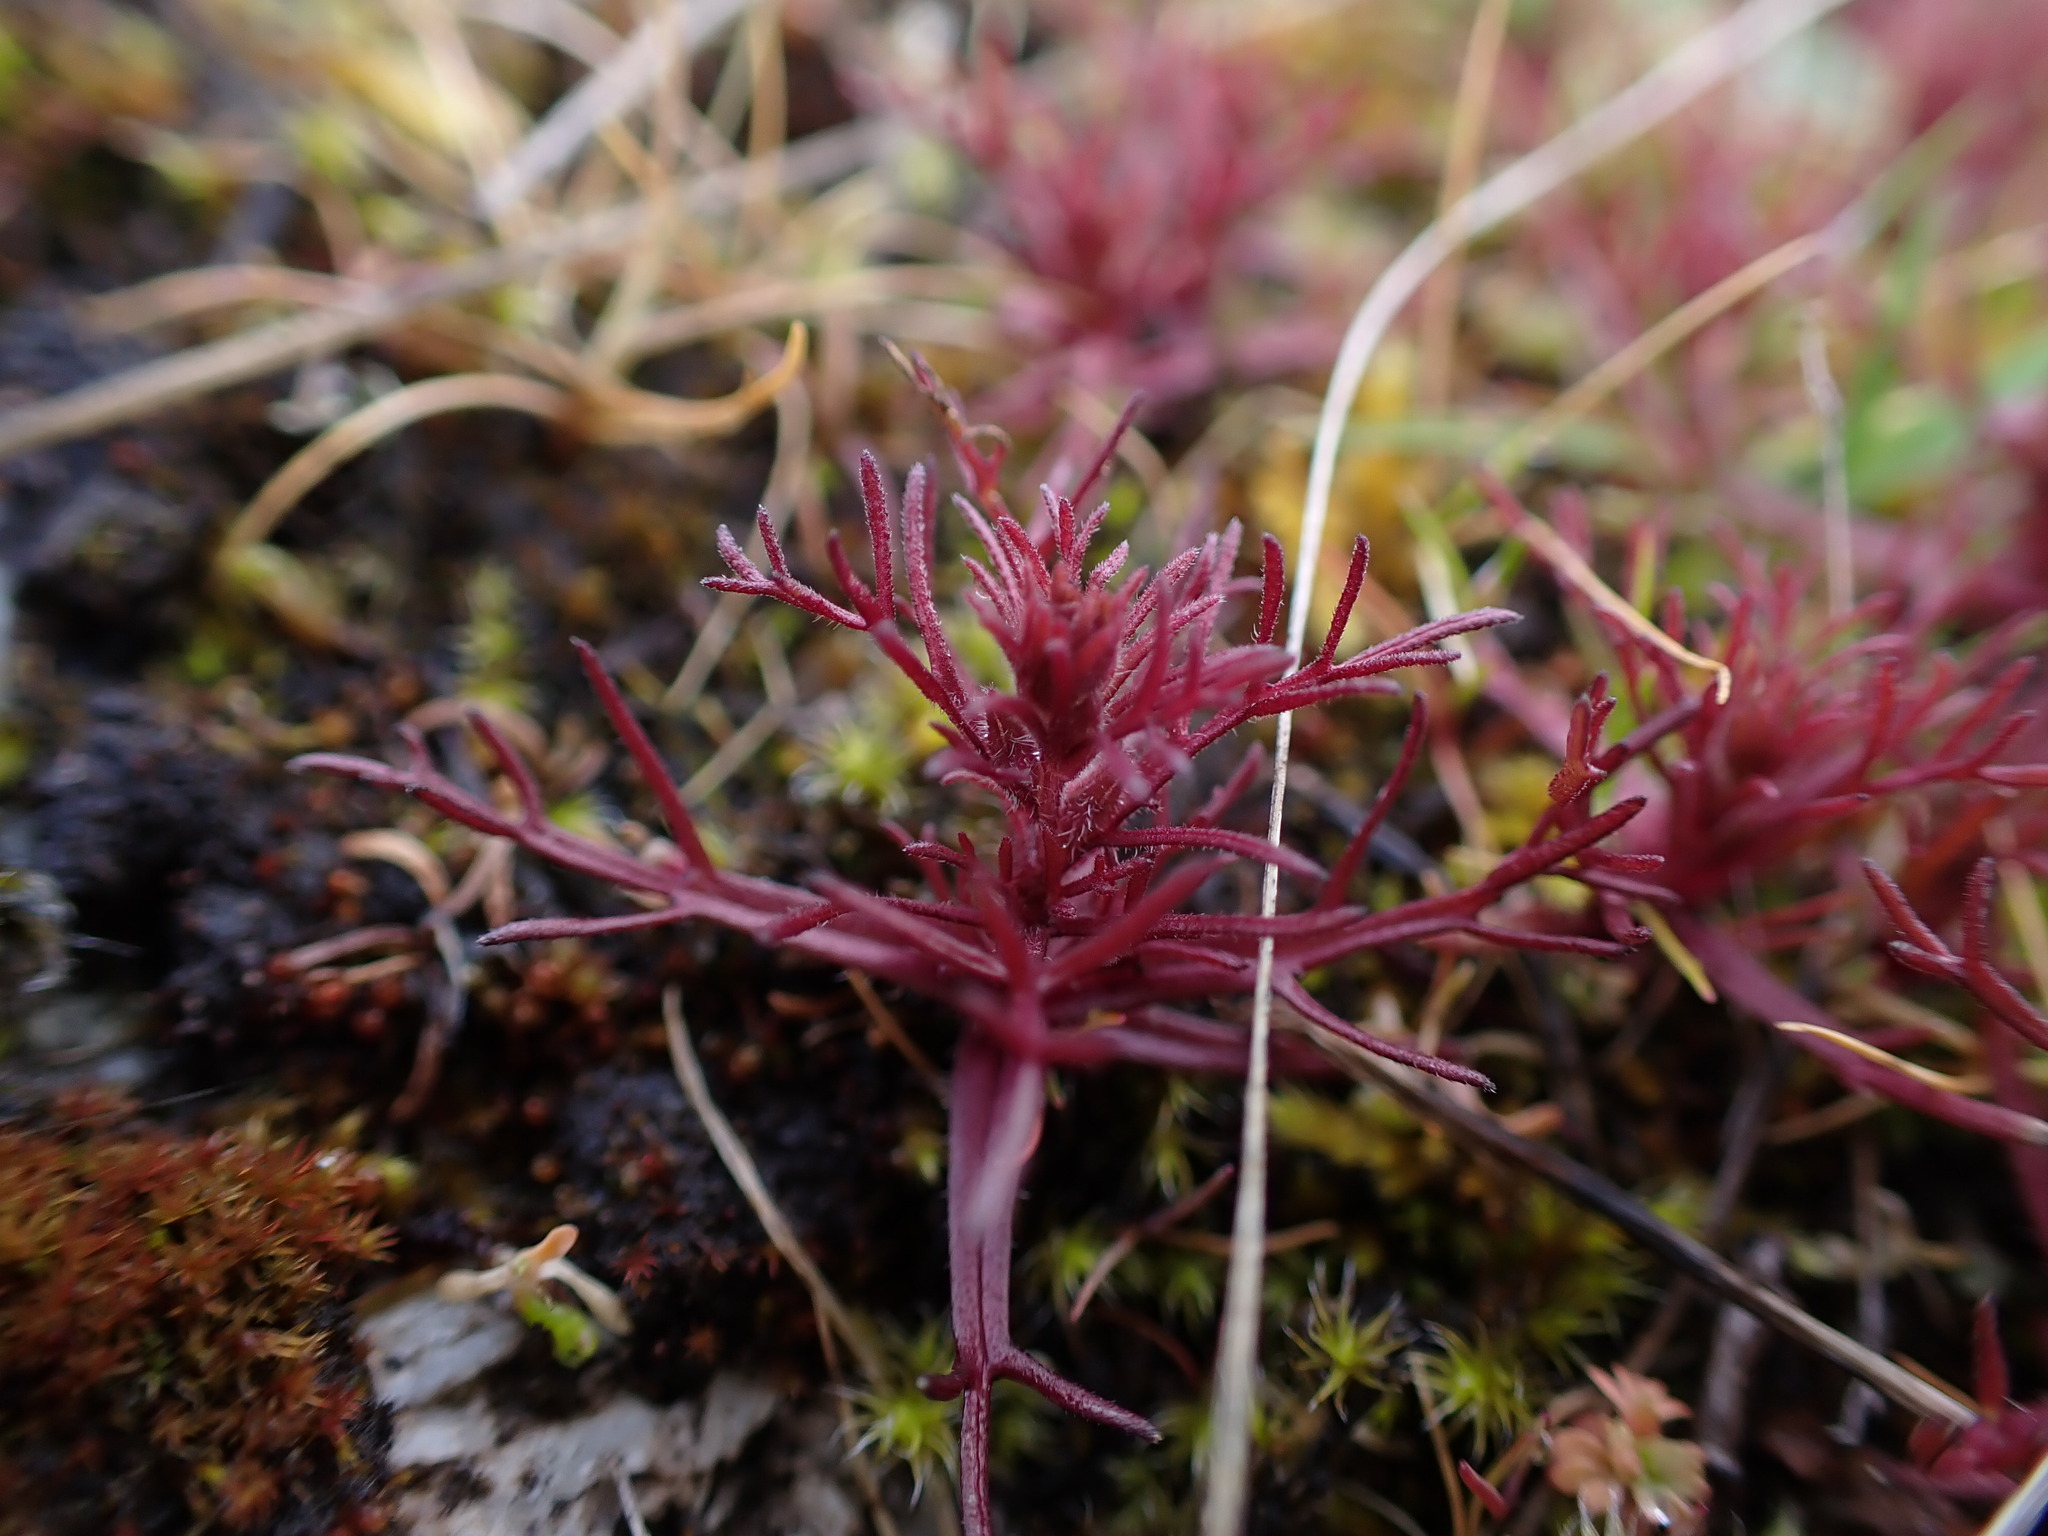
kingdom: Plantae
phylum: Tracheophyta
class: Magnoliopsida
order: Lamiales
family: Orobanchaceae
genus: Triphysaria
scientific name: Triphysaria pusilla
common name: Dwarf false owl-clover
